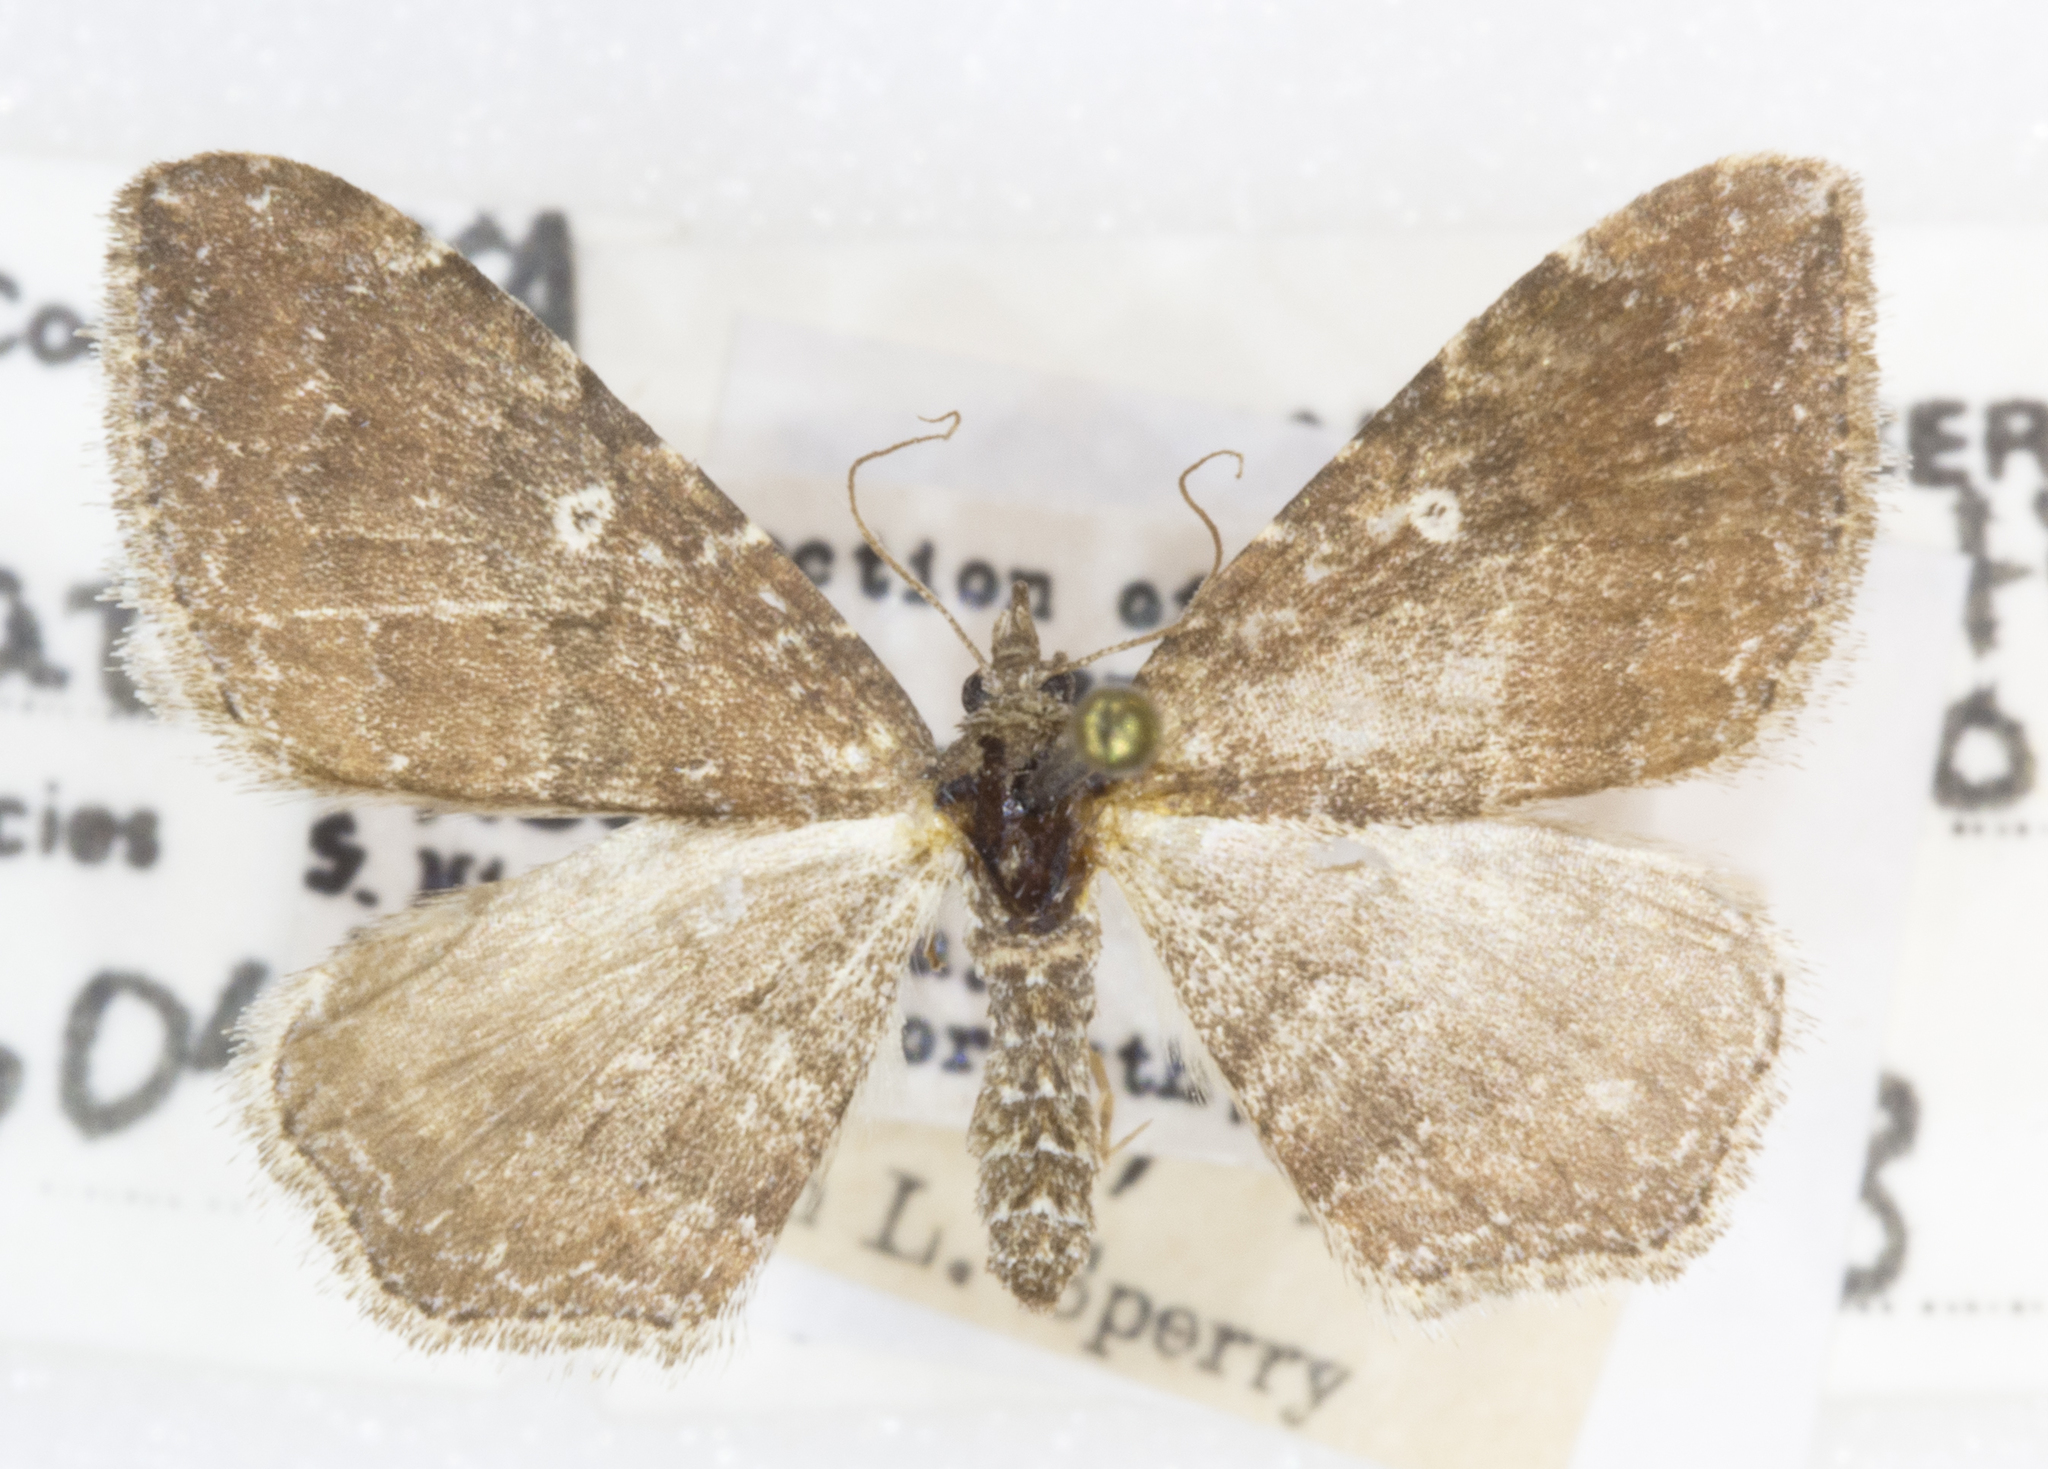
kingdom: Animalia
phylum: Arthropoda
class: Insecta
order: Lepidoptera
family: Geometridae
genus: Orthonama
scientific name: Orthonama obstipata
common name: The gem
